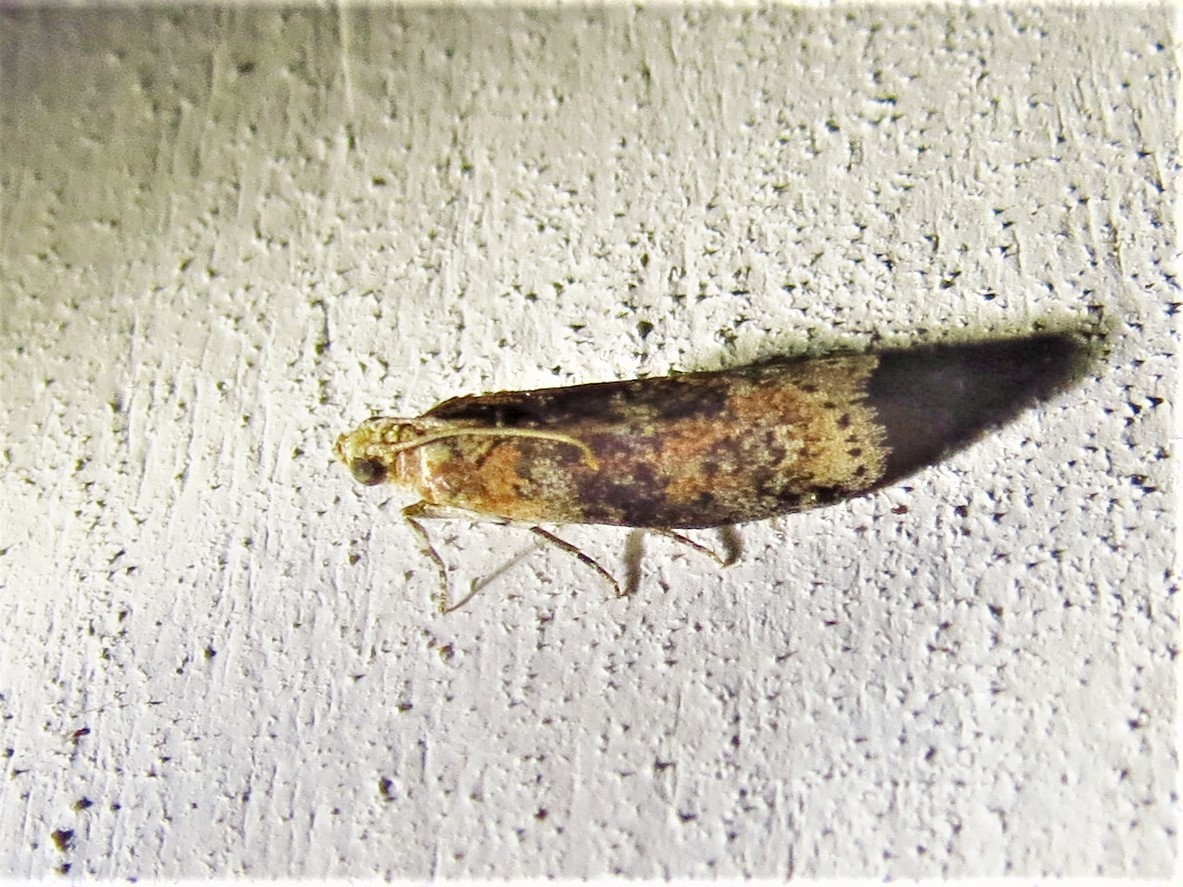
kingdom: Animalia
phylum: Arthropoda
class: Insecta
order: Lepidoptera
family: Pyralidae
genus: Sciota
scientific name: Sciota celtidella
